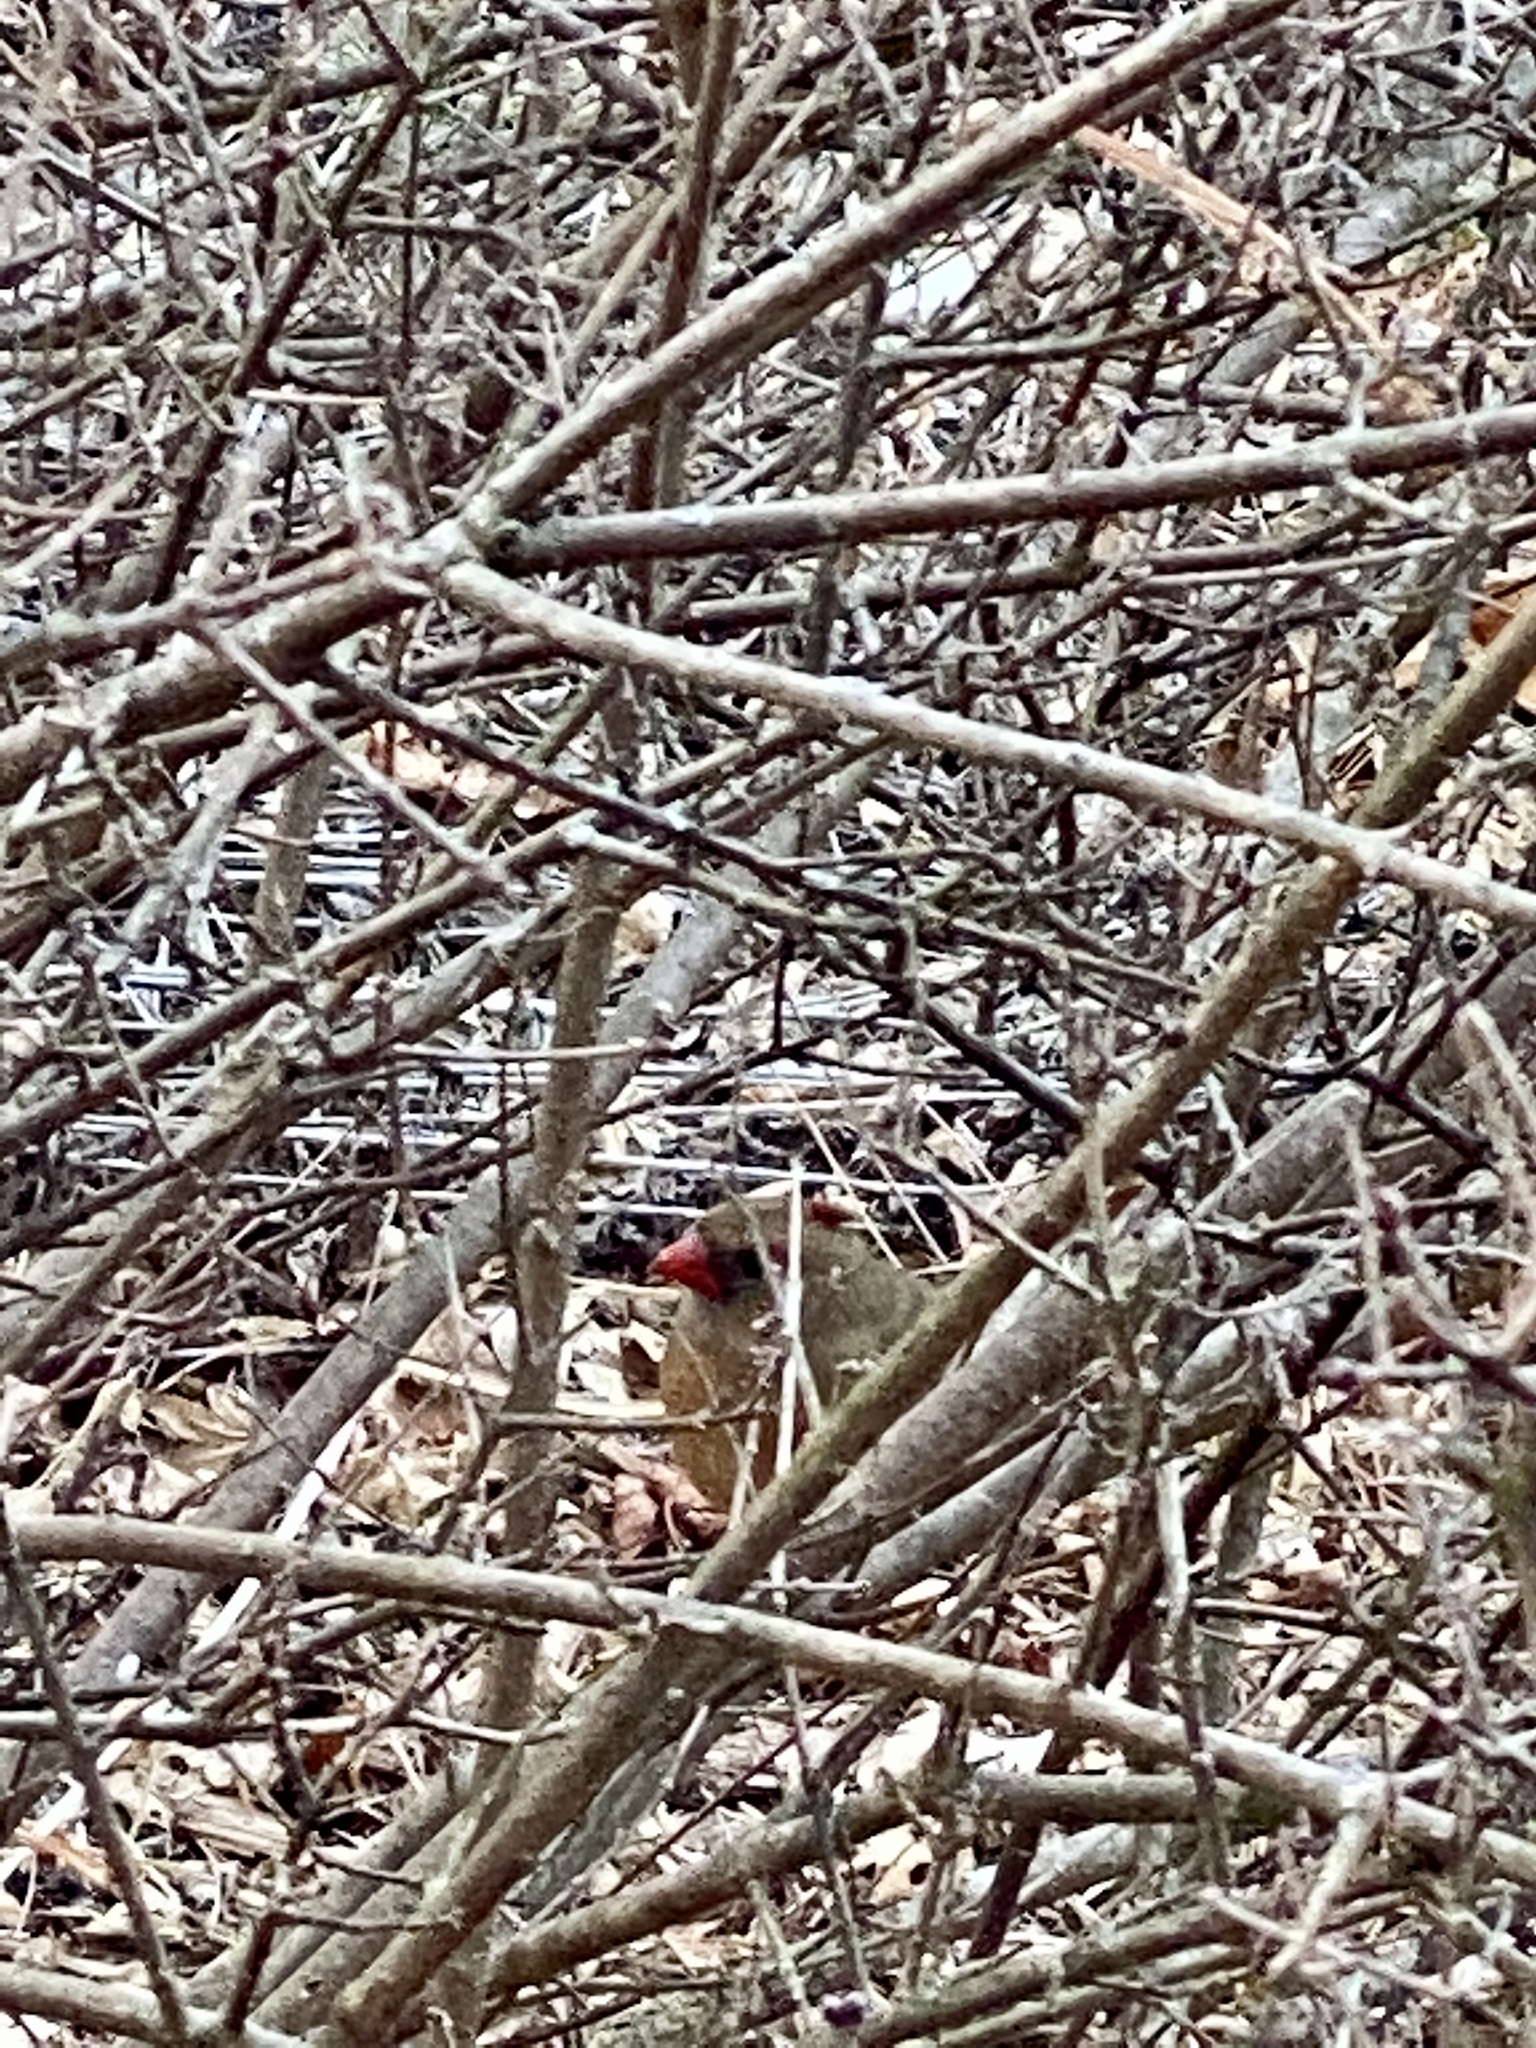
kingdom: Animalia
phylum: Chordata
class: Aves
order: Passeriformes
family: Cardinalidae
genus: Cardinalis
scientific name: Cardinalis cardinalis
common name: Northern cardinal
